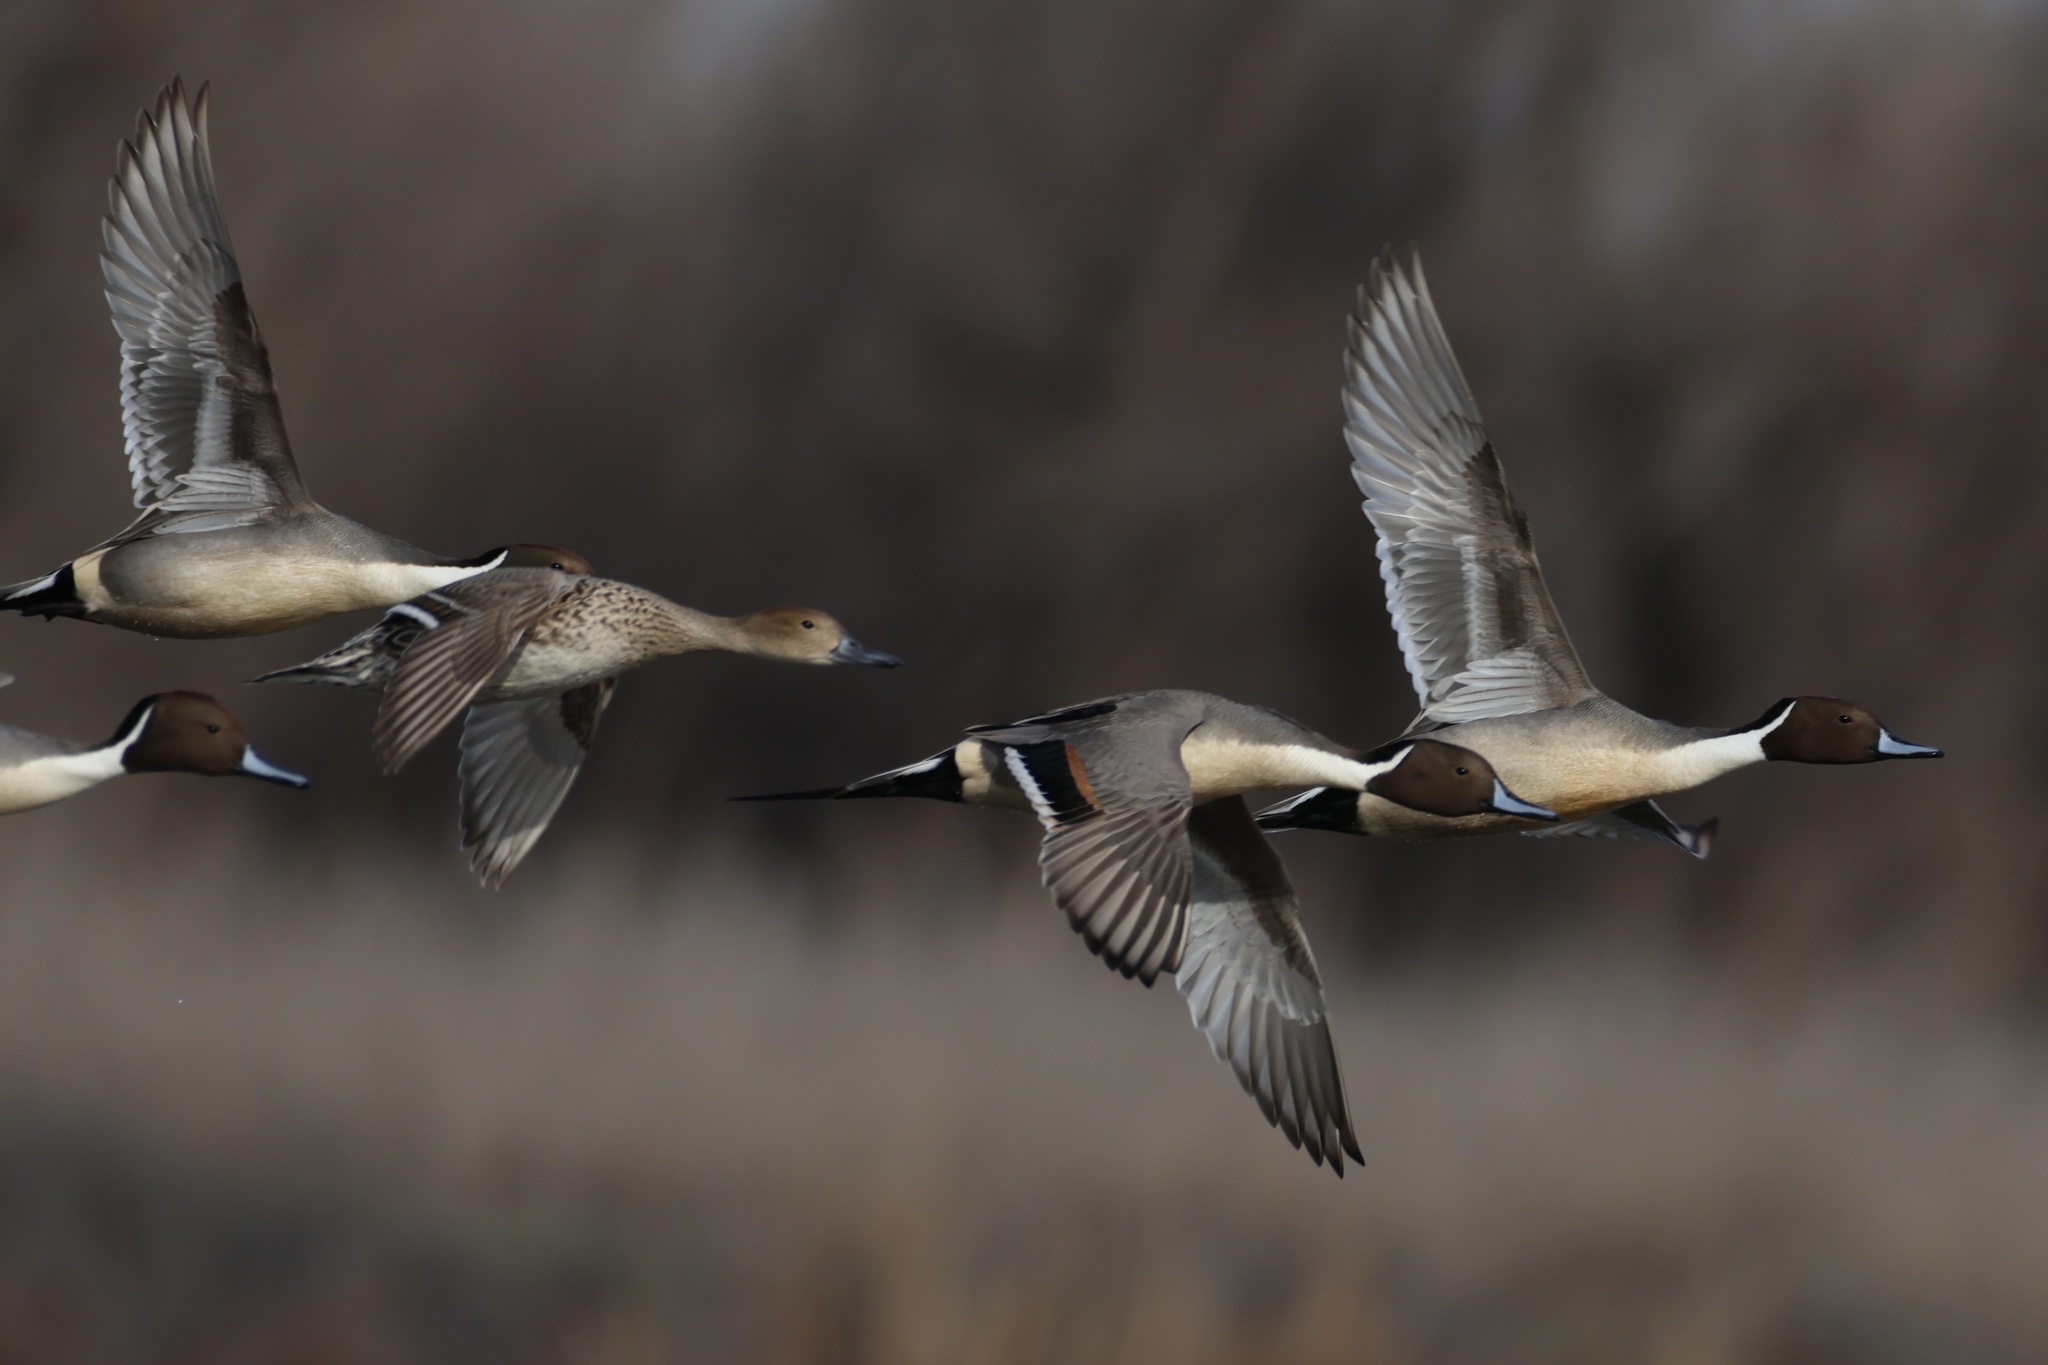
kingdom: Animalia
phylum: Chordata
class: Aves
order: Anseriformes
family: Anatidae
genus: Anas
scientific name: Anas acuta
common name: Northern pintail
